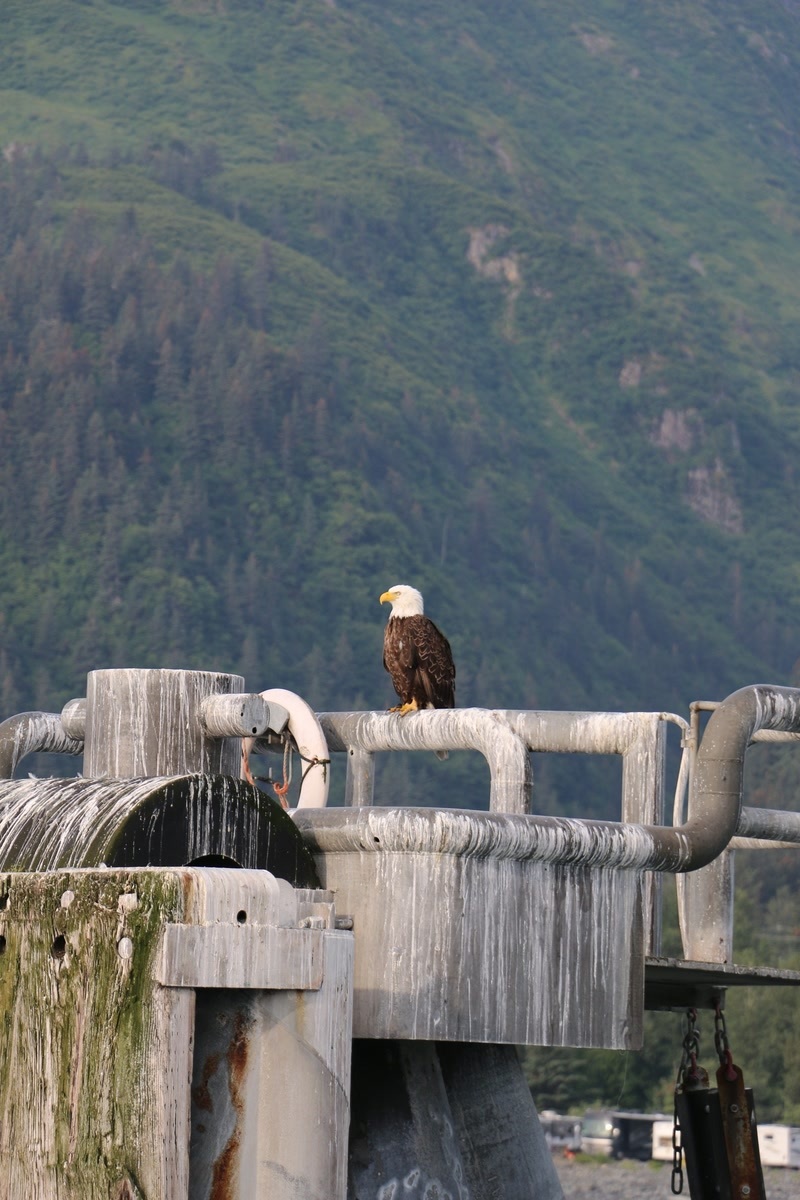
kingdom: Animalia
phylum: Chordata
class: Aves
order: Accipitriformes
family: Accipitridae
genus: Haliaeetus
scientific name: Haliaeetus leucocephalus
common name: Bald eagle
